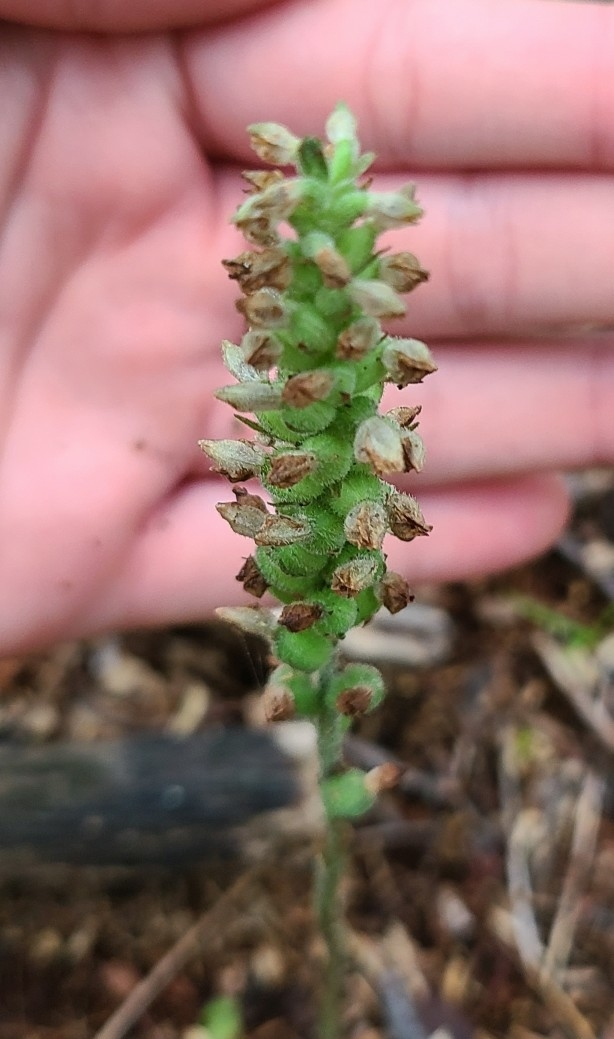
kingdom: Plantae
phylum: Tracheophyta
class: Liliopsida
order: Asparagales
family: Orchidaceae
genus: Goodyera
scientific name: Goodyera pubescens
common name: Downy rattlesnake-plantain
